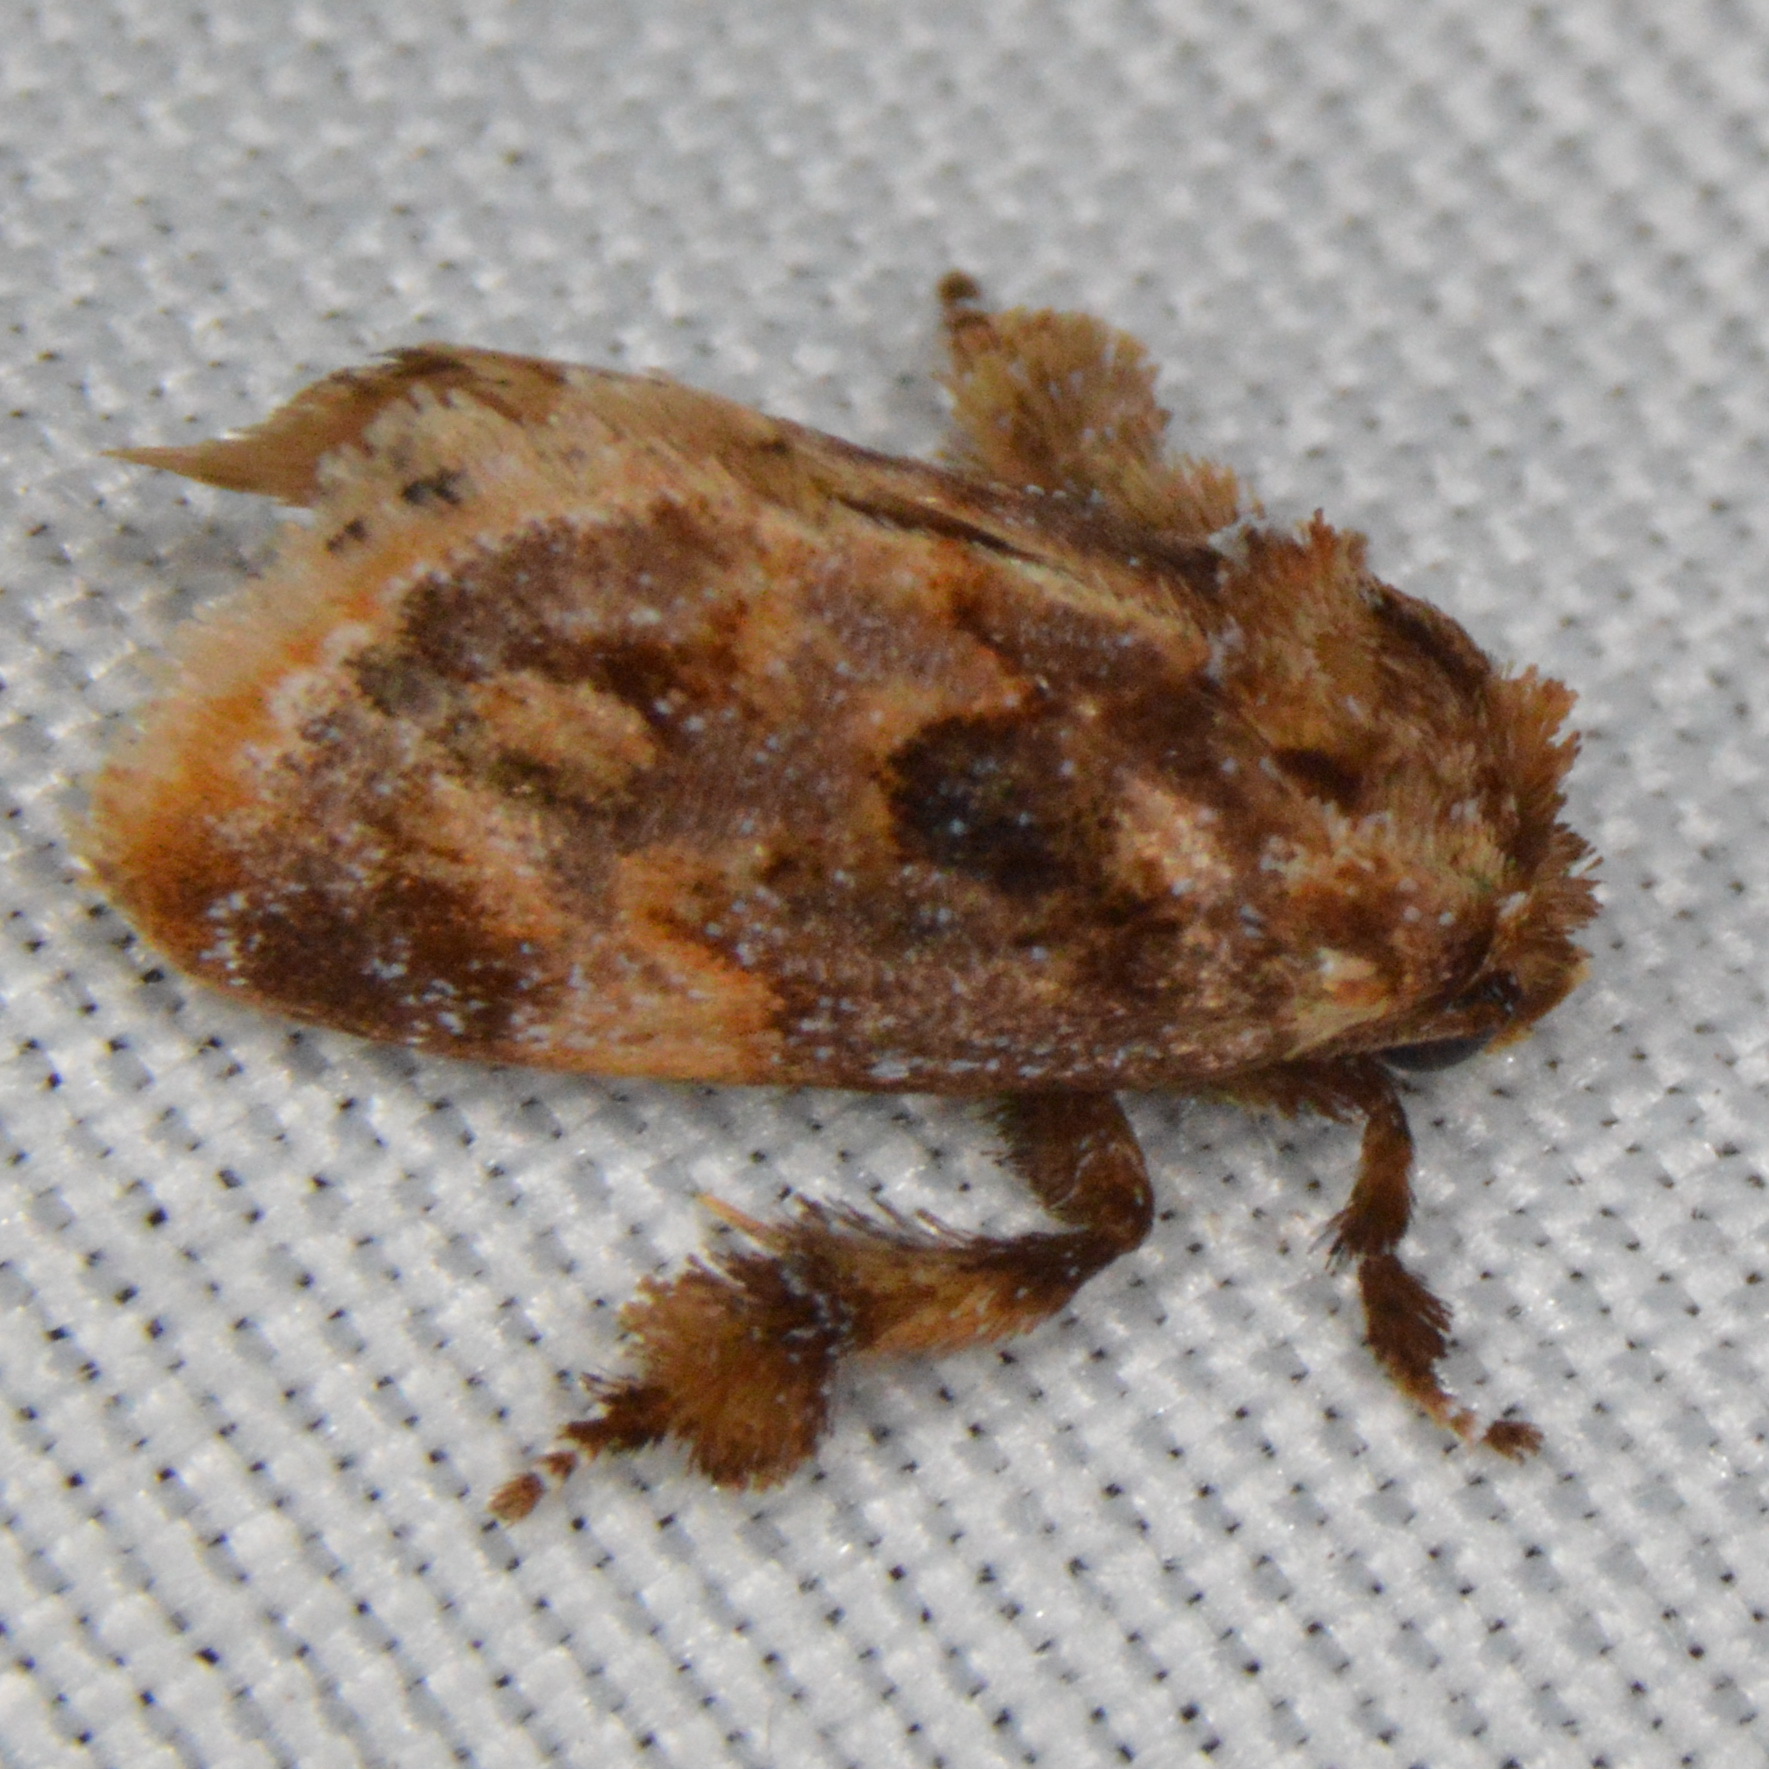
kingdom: Animalia
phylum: Arthropoda
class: Insecta
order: Lepidoptera
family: Limacodidae
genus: Isochaetes
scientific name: Isochaetes beutenmuelleri
